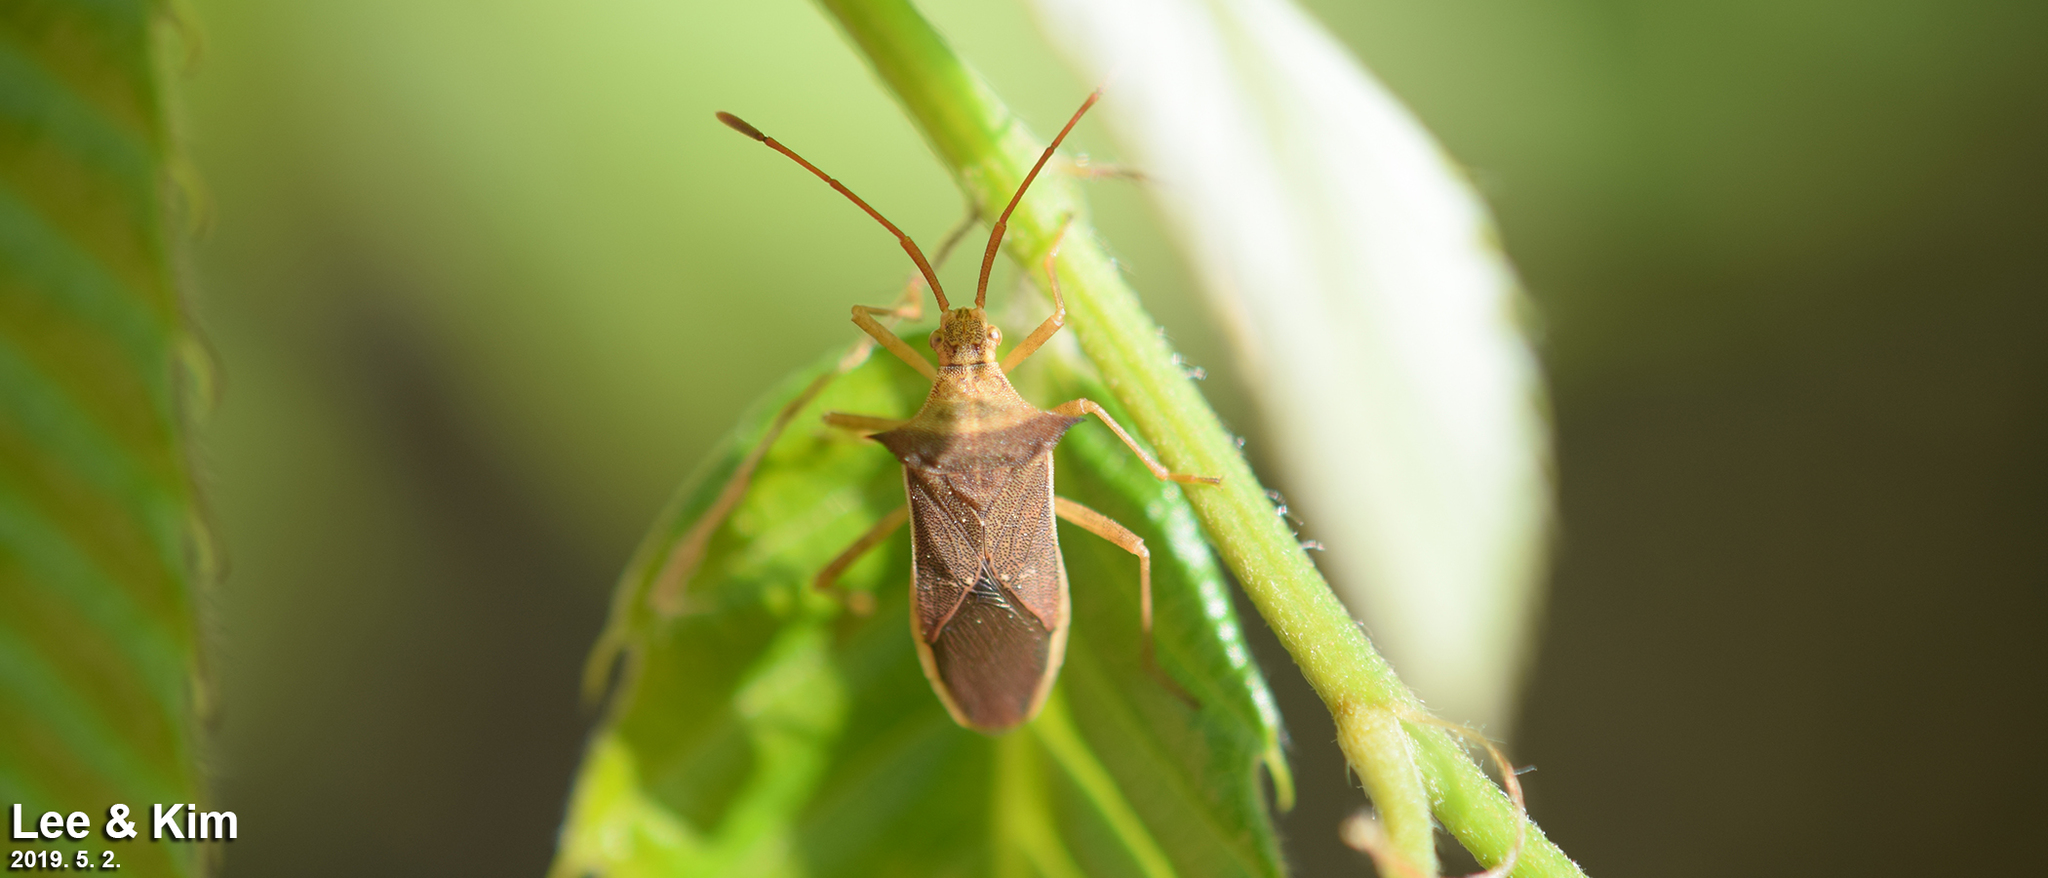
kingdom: Animalia
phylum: Arthropoda
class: Insecta
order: Hemiptera
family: Coreidae
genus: Cletus
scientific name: Cletus schmidti
